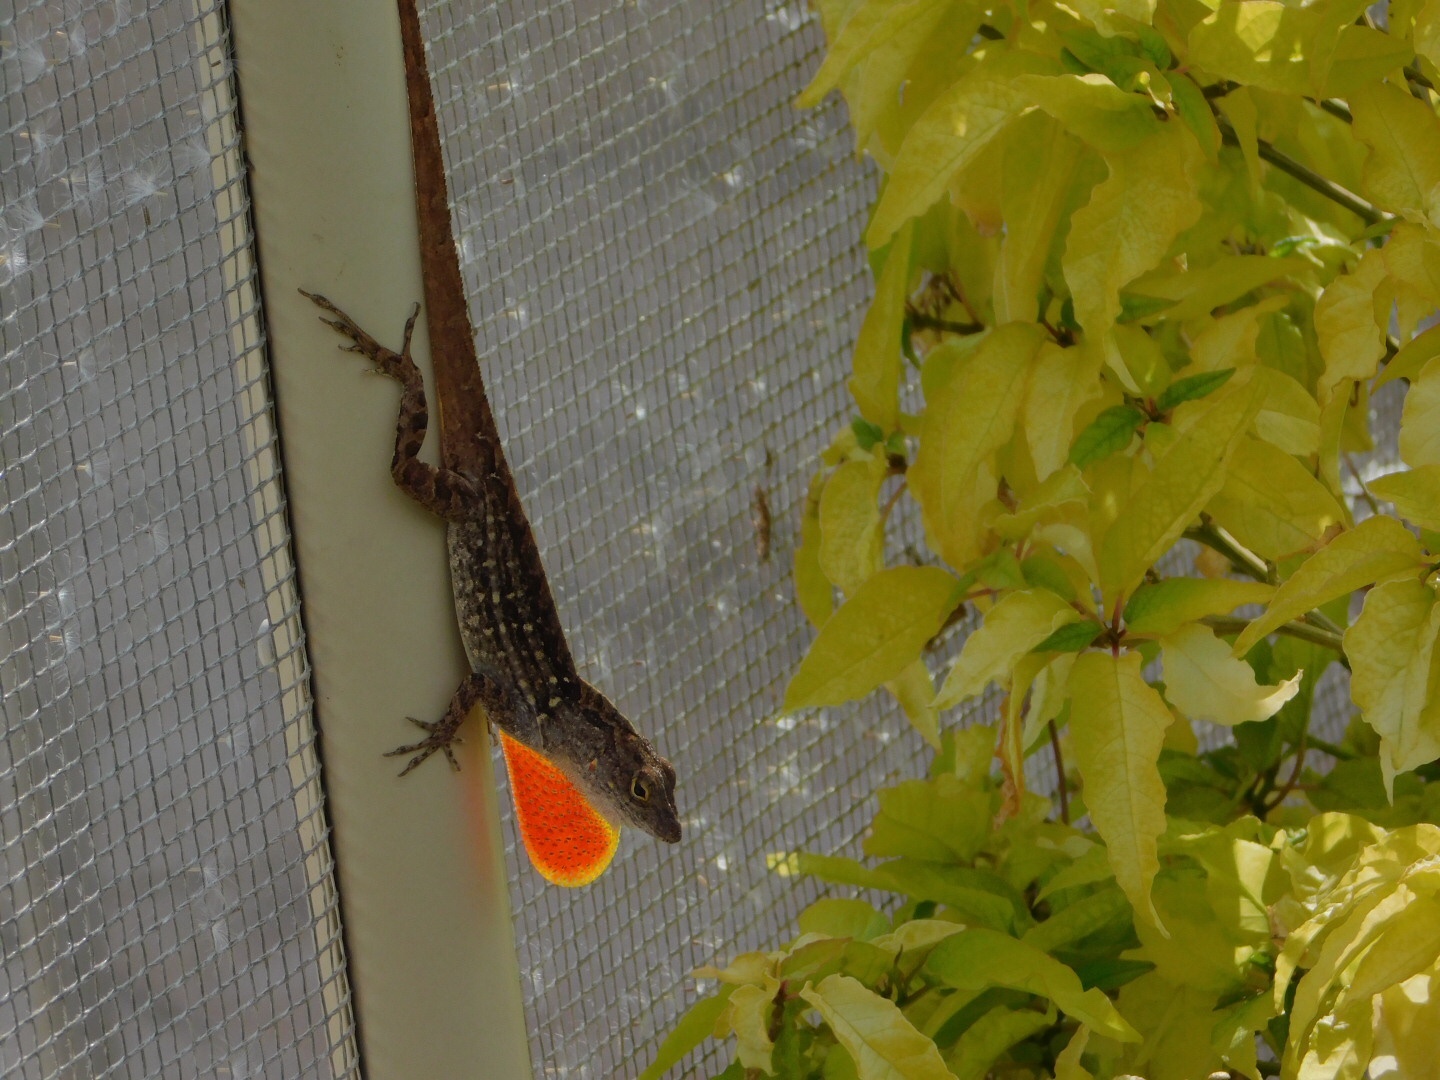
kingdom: Animalia
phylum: Chordata
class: Squamata
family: Dactyloidae
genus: Anolis
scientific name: Anolis sagrei
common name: Brown anole
